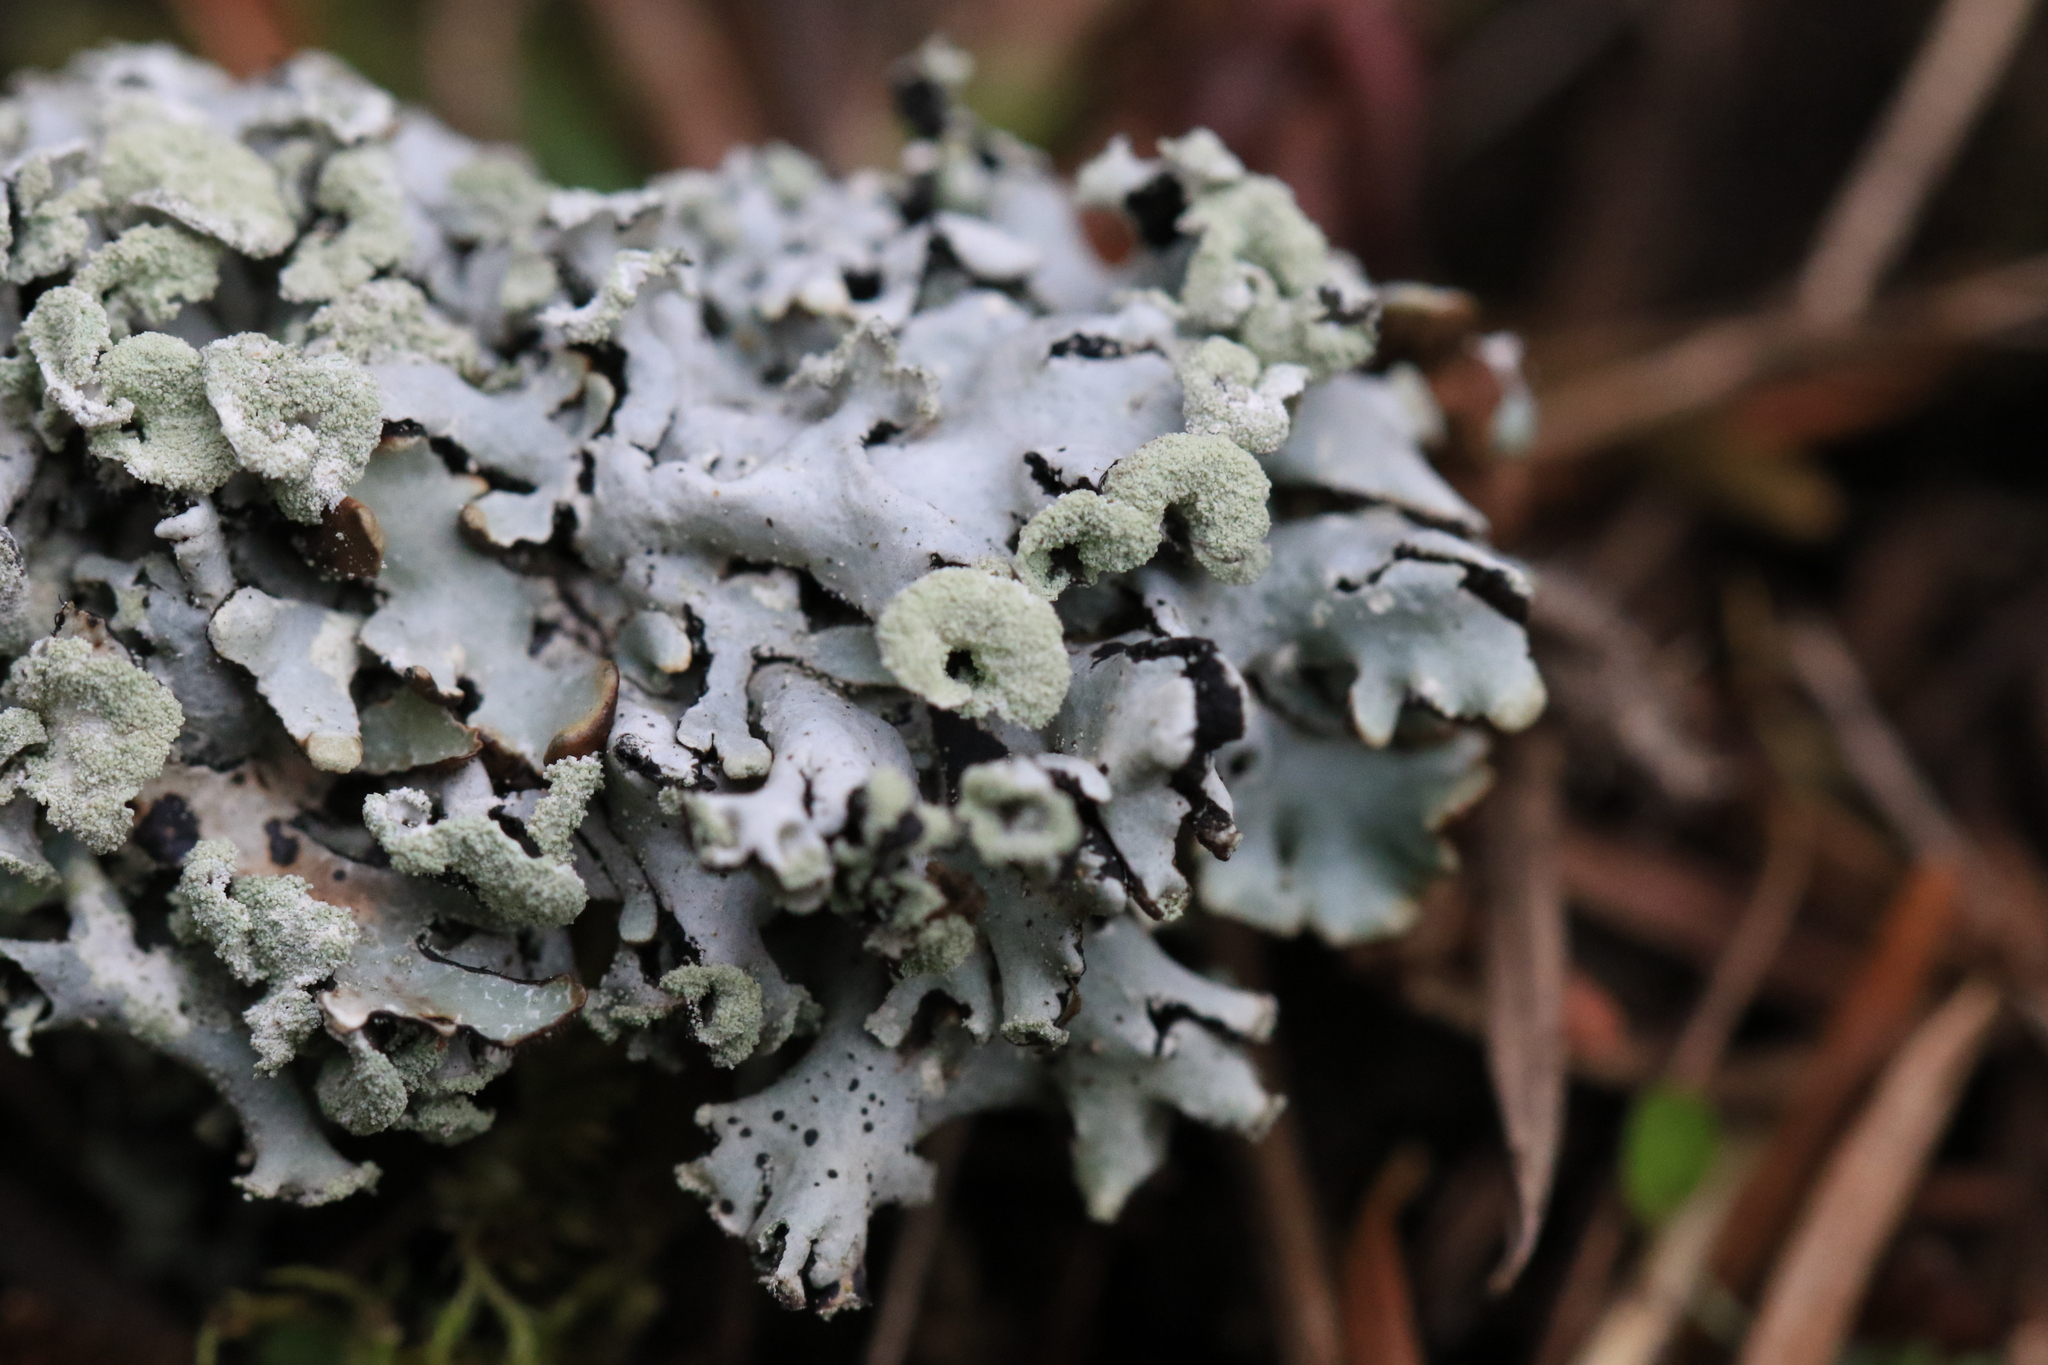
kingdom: Fungi
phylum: Ascomycota
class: Lecanoromycetes
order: Lecanorales
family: Parmeliaceae
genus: Hypogymnia
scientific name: Hypogymnia physodes
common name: Dark crottle
